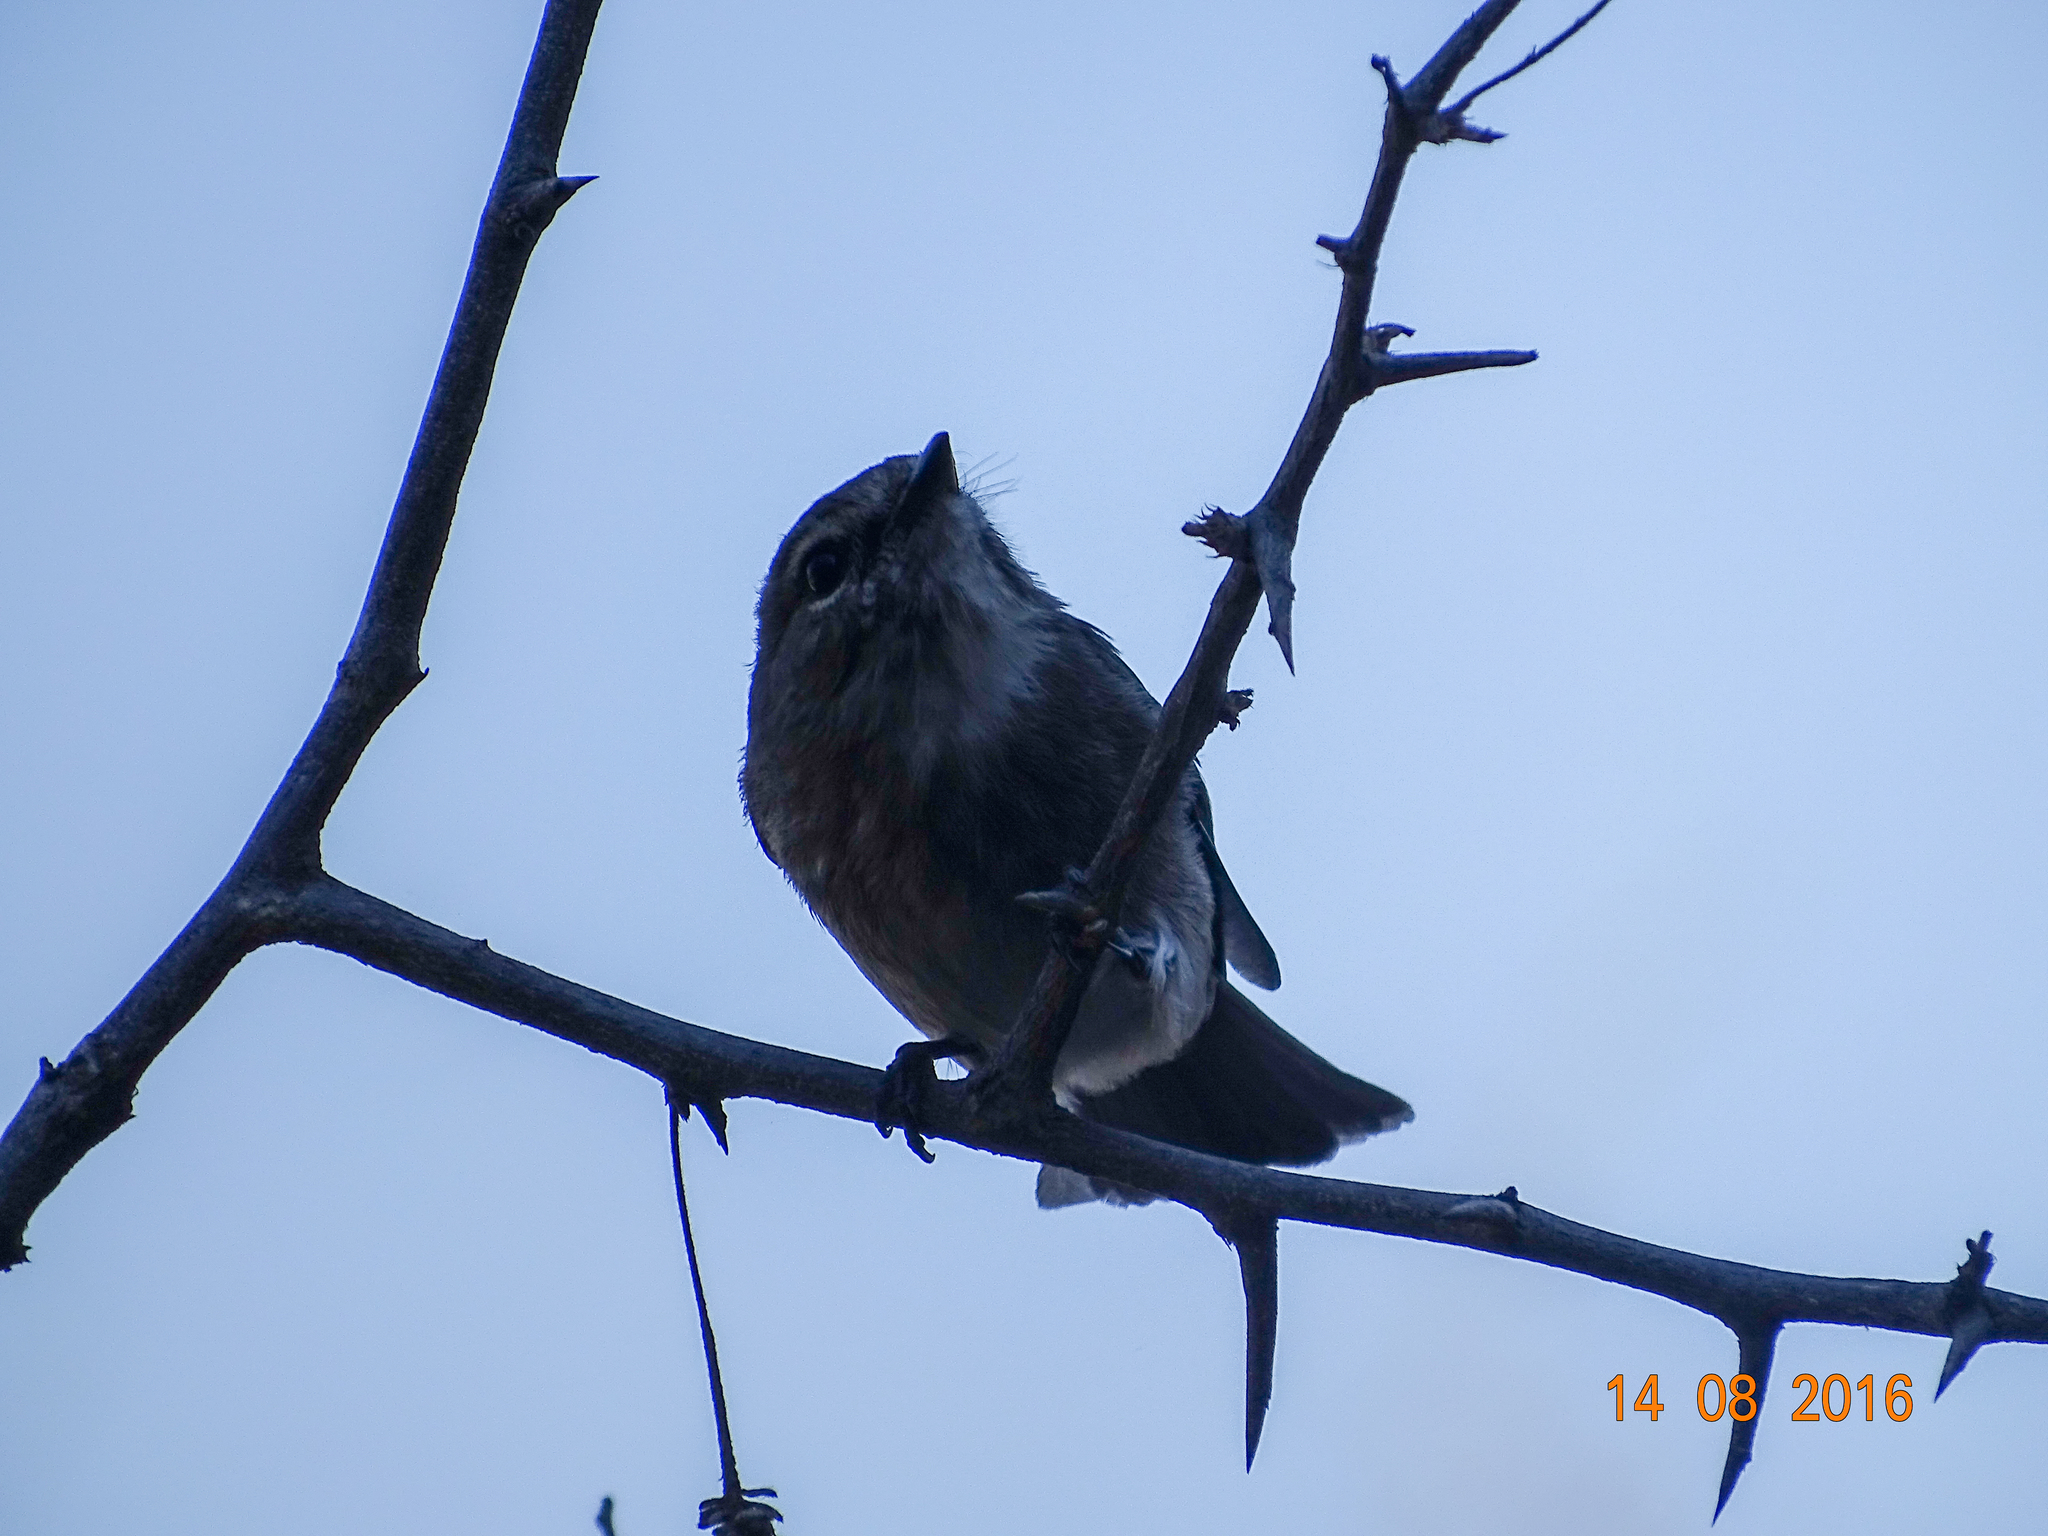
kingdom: Animalia
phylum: Chordata
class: Aves
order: Passeriformes
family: Muscicapidae
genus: Muscicapa
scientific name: Muscicapa adusta
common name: African dusky flycatcher
